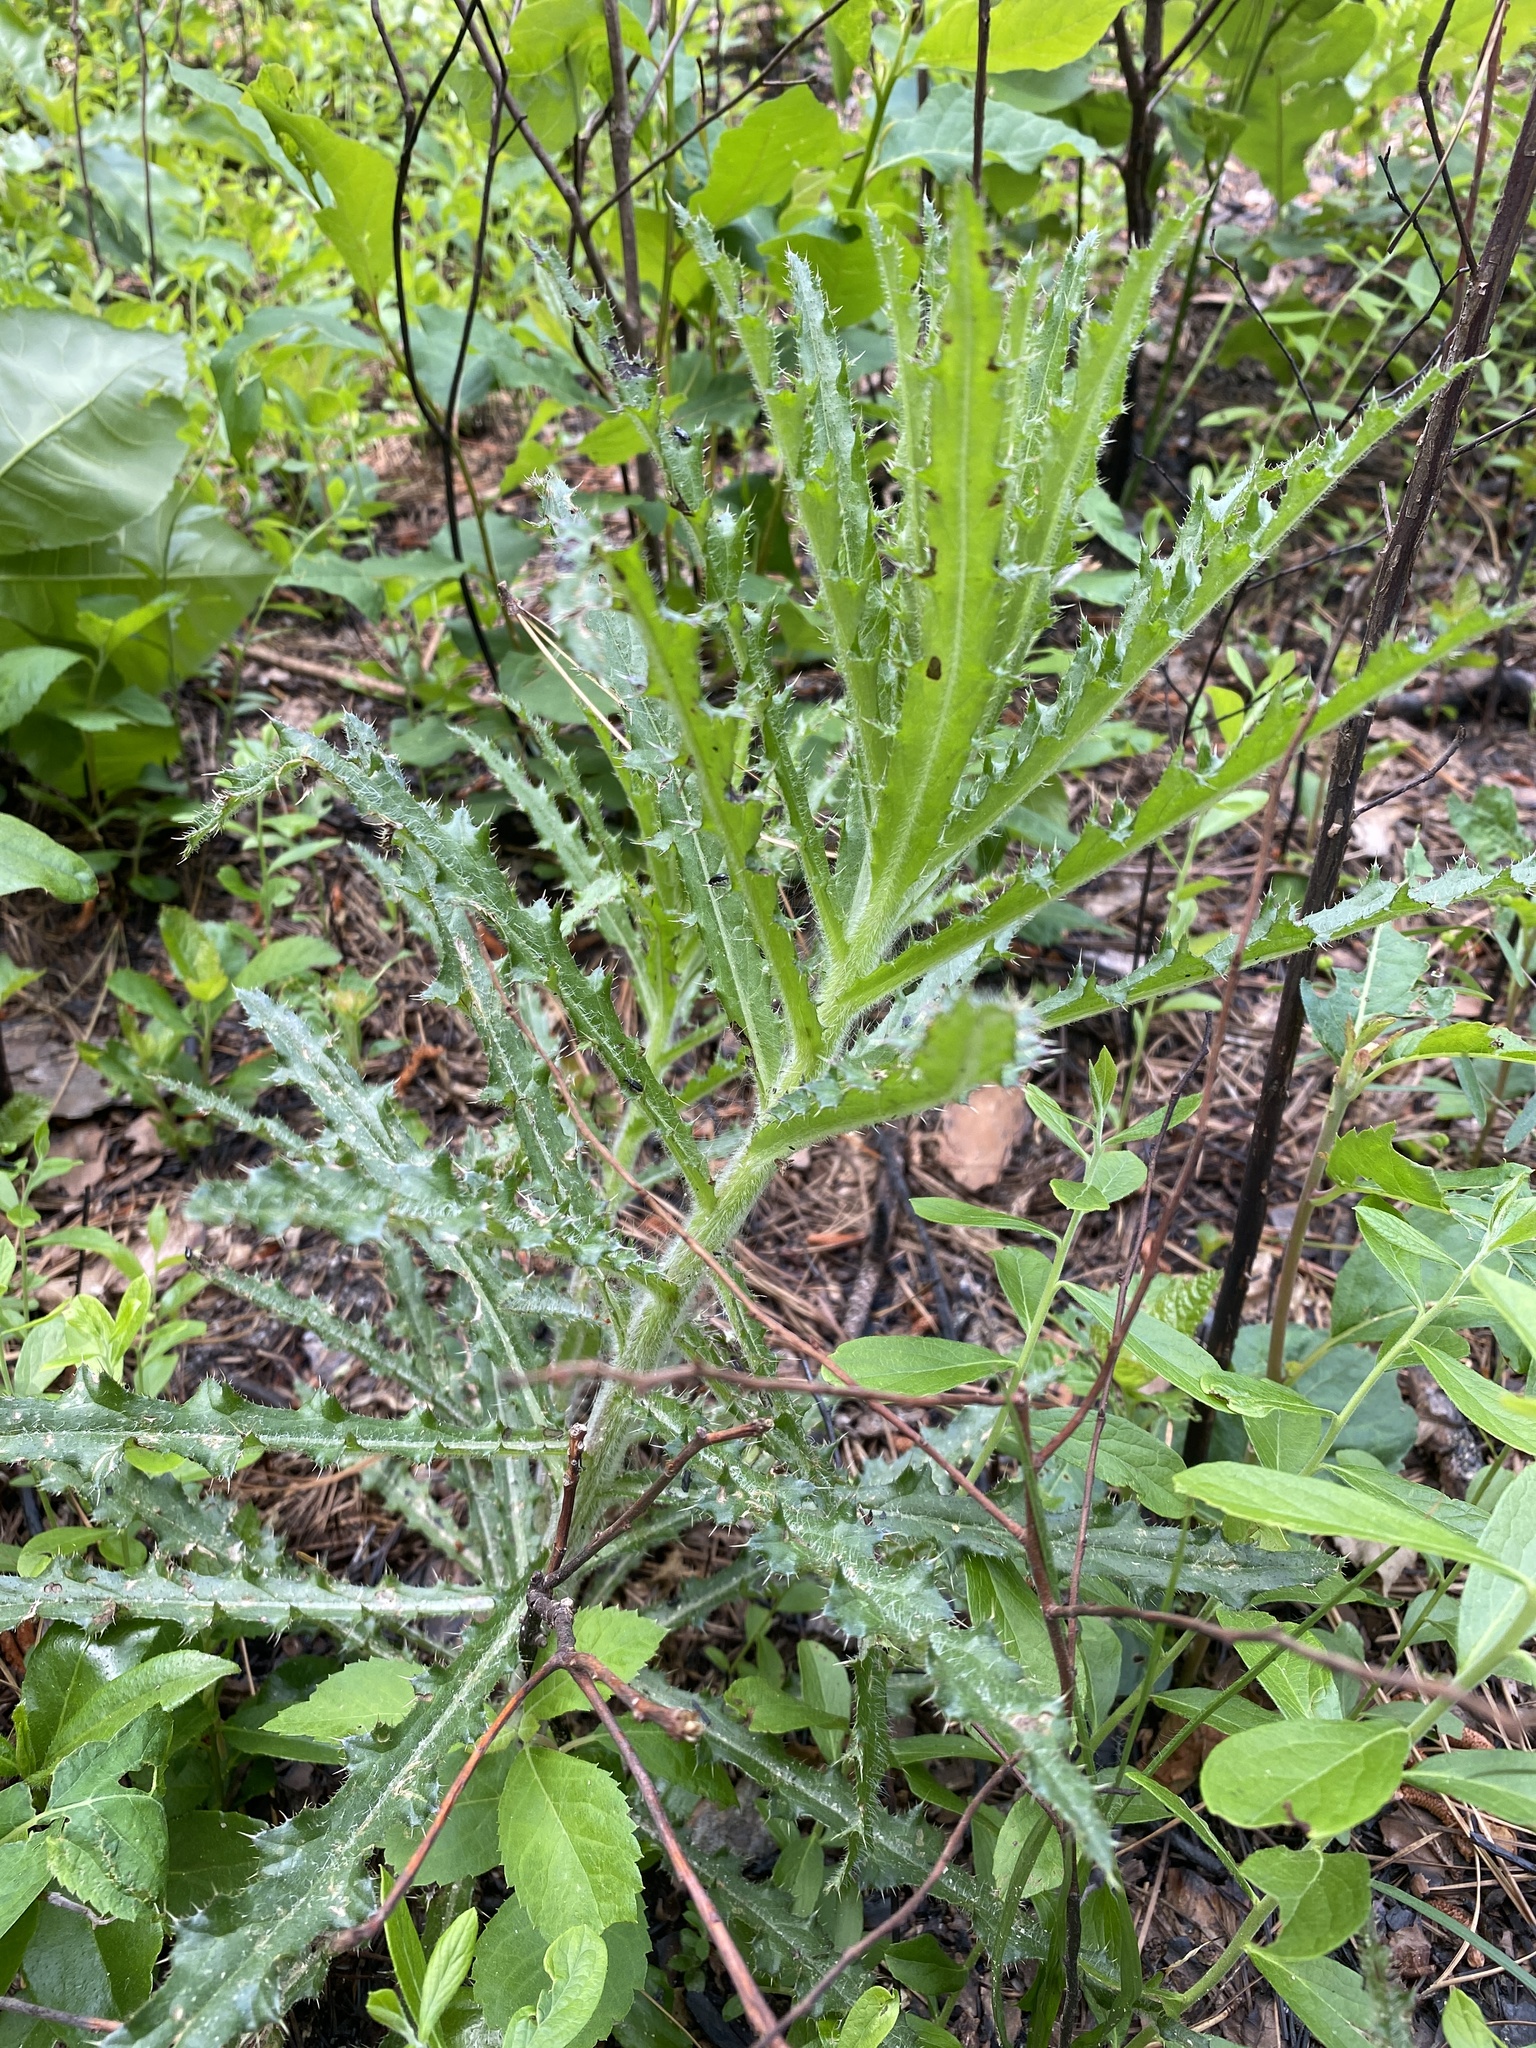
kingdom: Plantae
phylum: Tracheophyta
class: Magnoliopsida
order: Asterales
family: Asteraceae
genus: Cirsium
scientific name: Cirsium repandum
